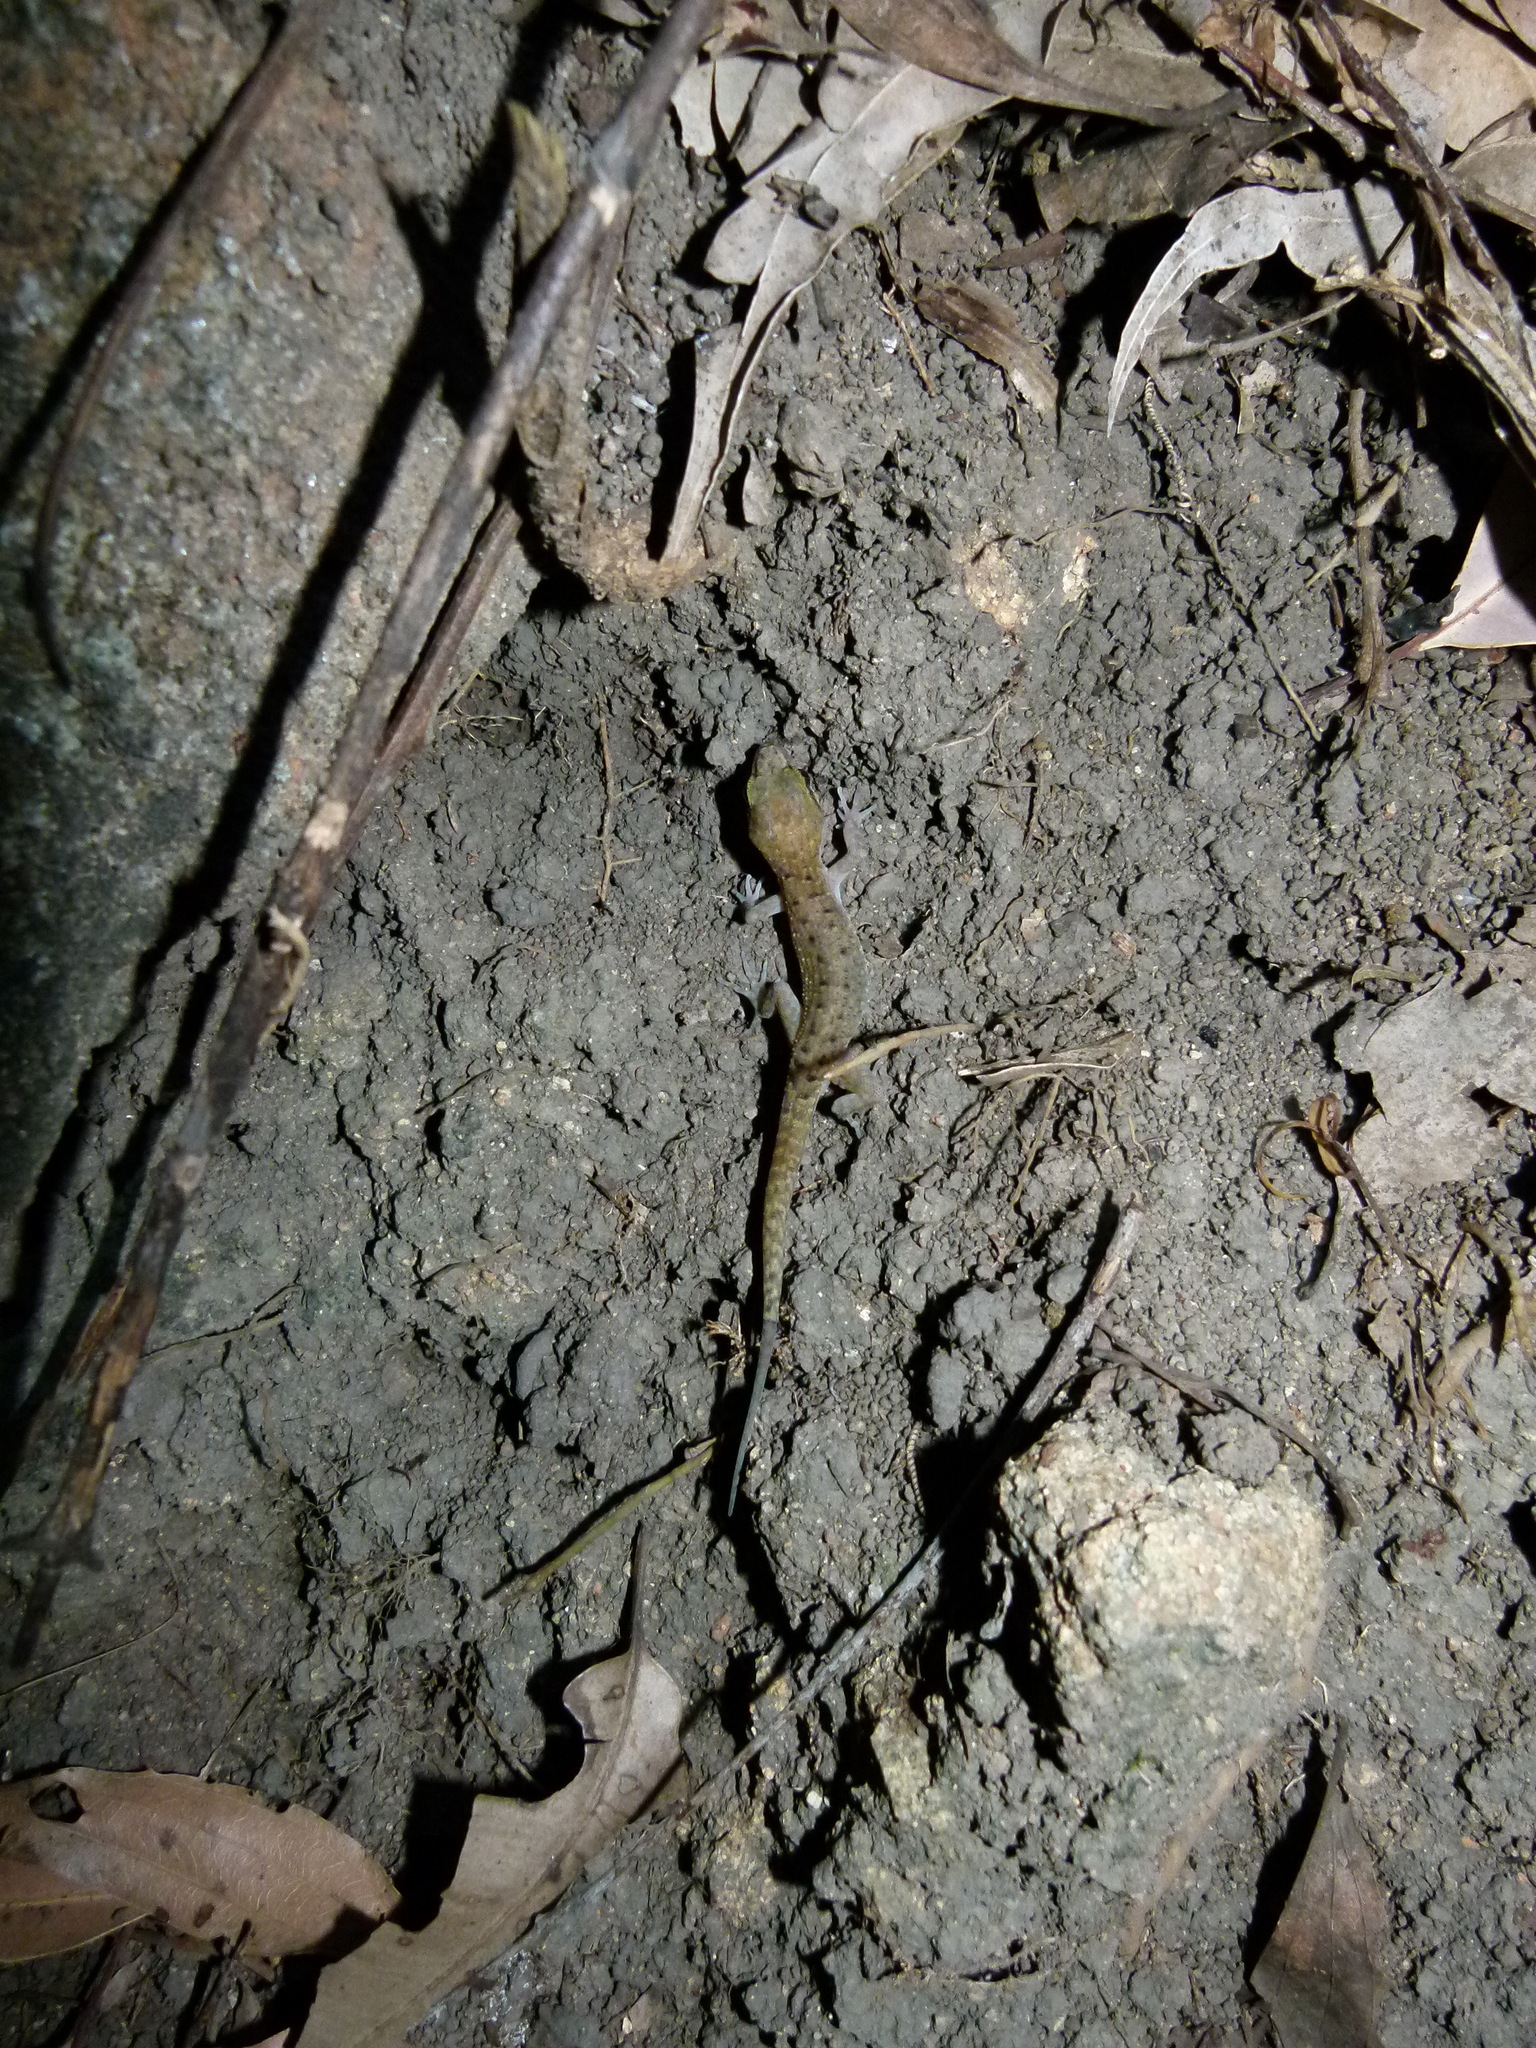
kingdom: Animalia
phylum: Chordata
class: Squamata
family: Gekkonidae
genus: Nactus
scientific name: Nactus cheverti
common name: Chevert's gecko
